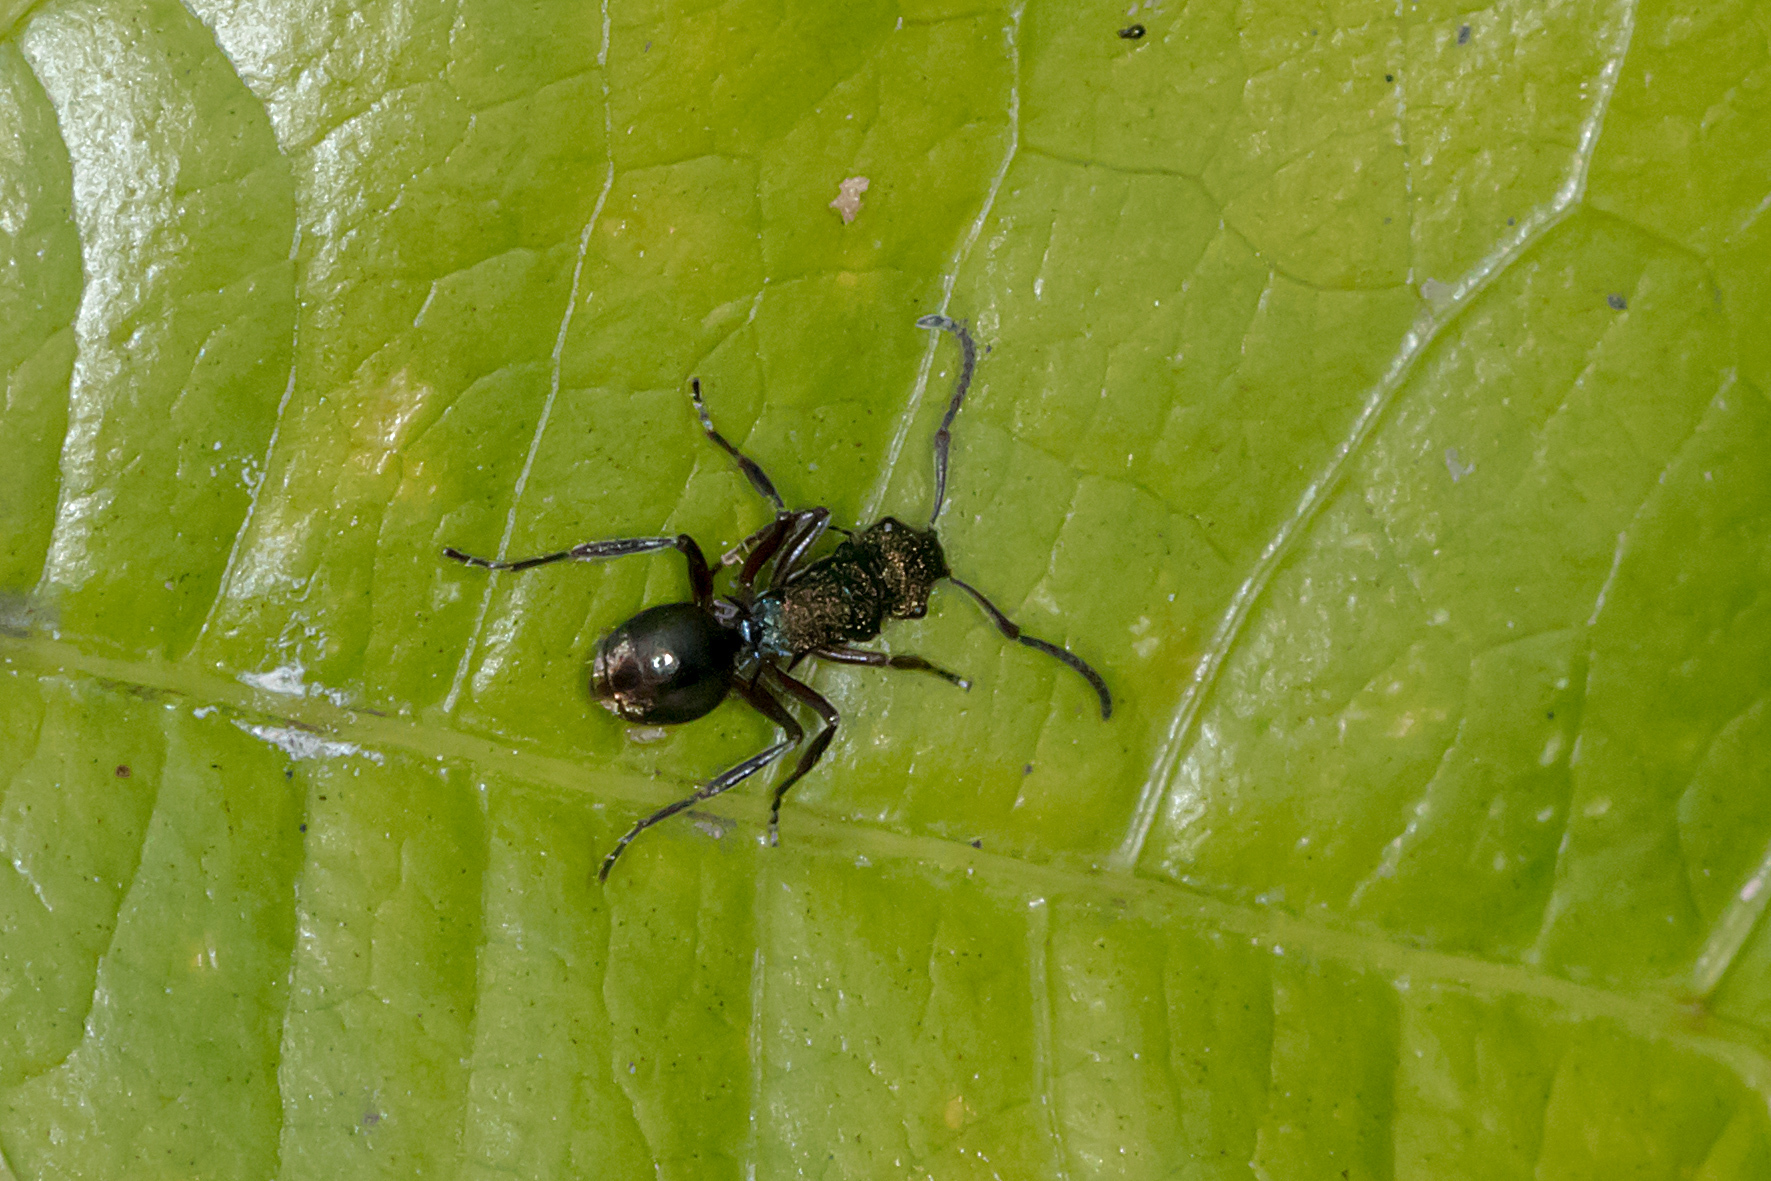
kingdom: Animalia
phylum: Arthropoda
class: Insecta
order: Hymenoptera
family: Formicidae
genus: Polyrhachis
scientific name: Polyrhachis hookeri
